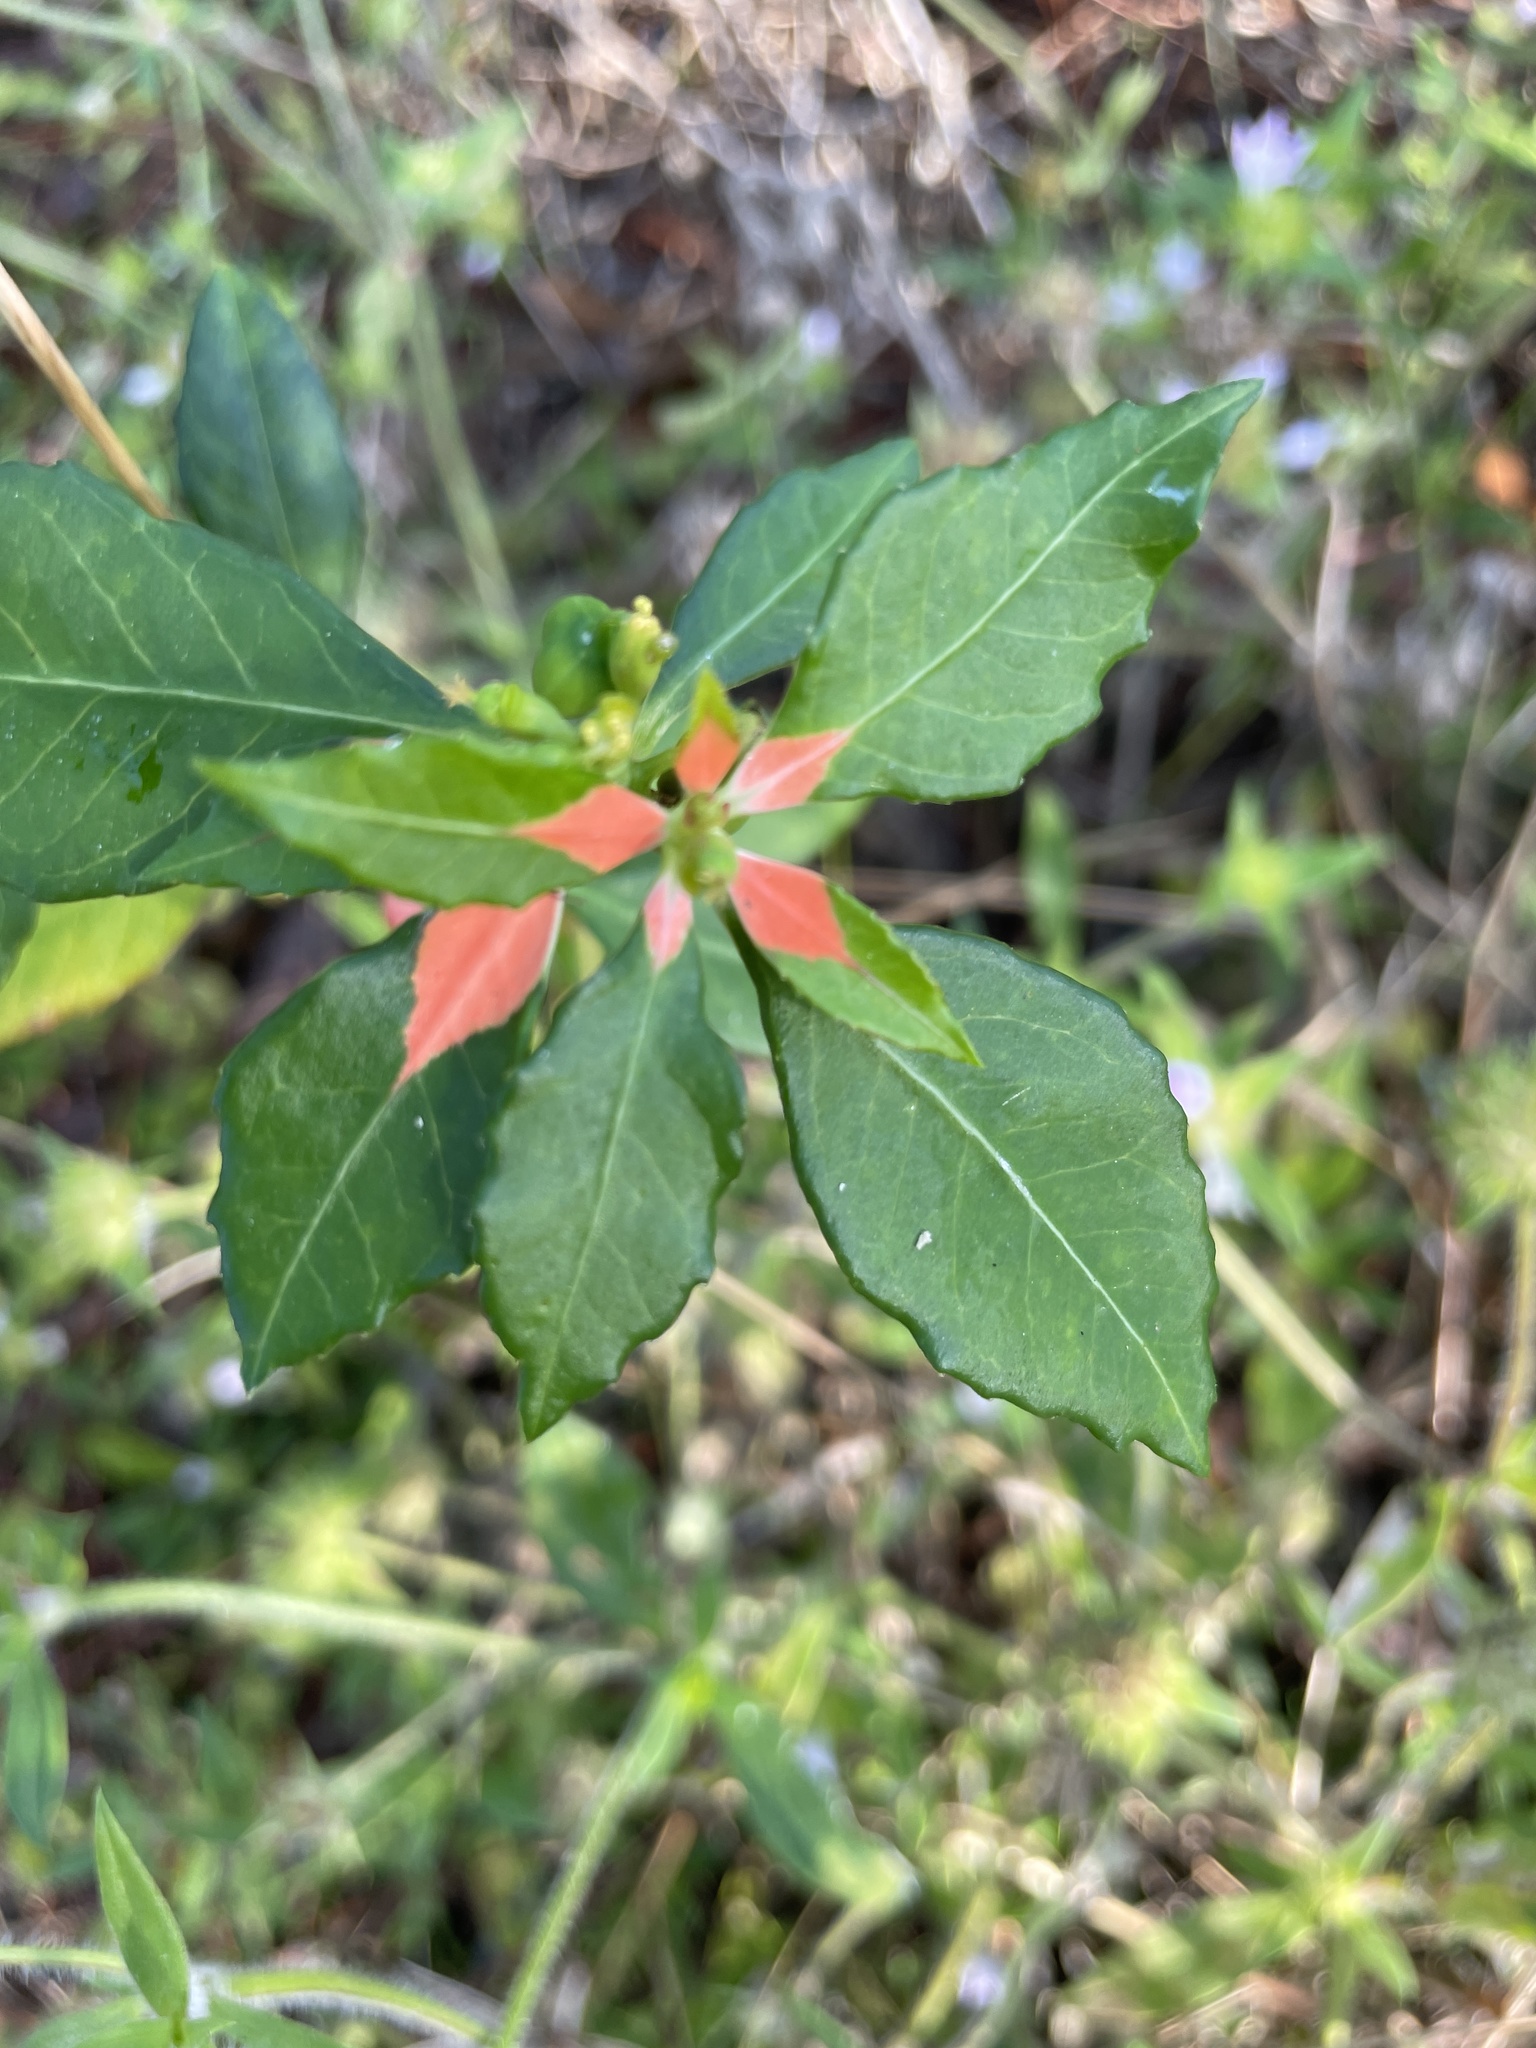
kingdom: Plantae
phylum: Tracheophyta
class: Magnoliopsida
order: Malpighiales
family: Euphorbiaceae
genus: Euphorbia
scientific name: Euphorbia heterophylla
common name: Mexican fireplant
